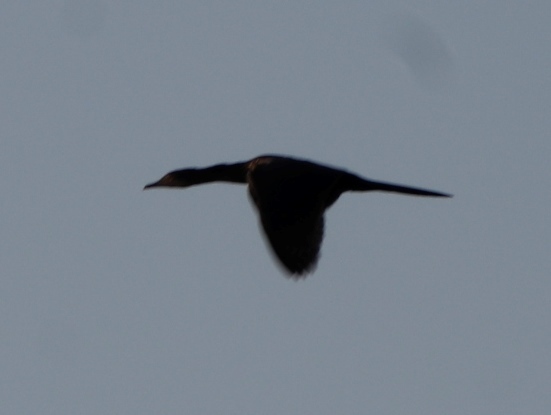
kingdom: Animalia
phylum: Chordata
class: Aves
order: Suliformes
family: Phalacrocoracidae
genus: Microcarbo
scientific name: Microcarbo africanus
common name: Long-tailed cormorant
